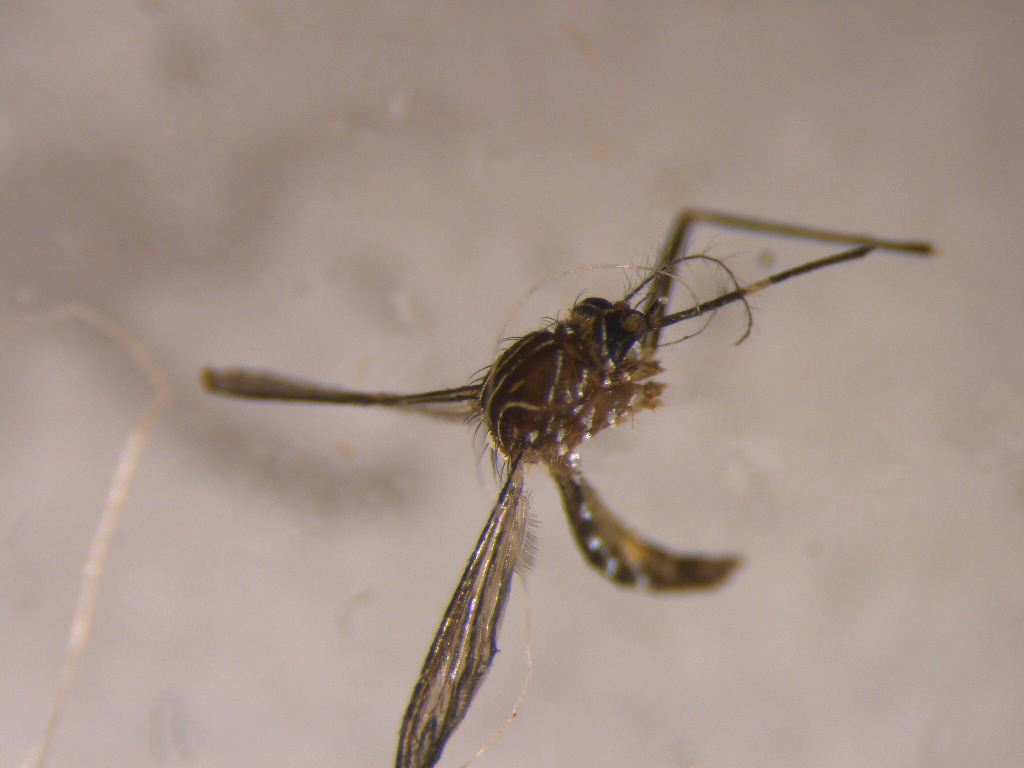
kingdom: Animalia
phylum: Arthropoda
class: Insecta
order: Diptera
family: Culicidae
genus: Aedes
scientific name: Aedes notoscriptus
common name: Australian backyard mosquito
